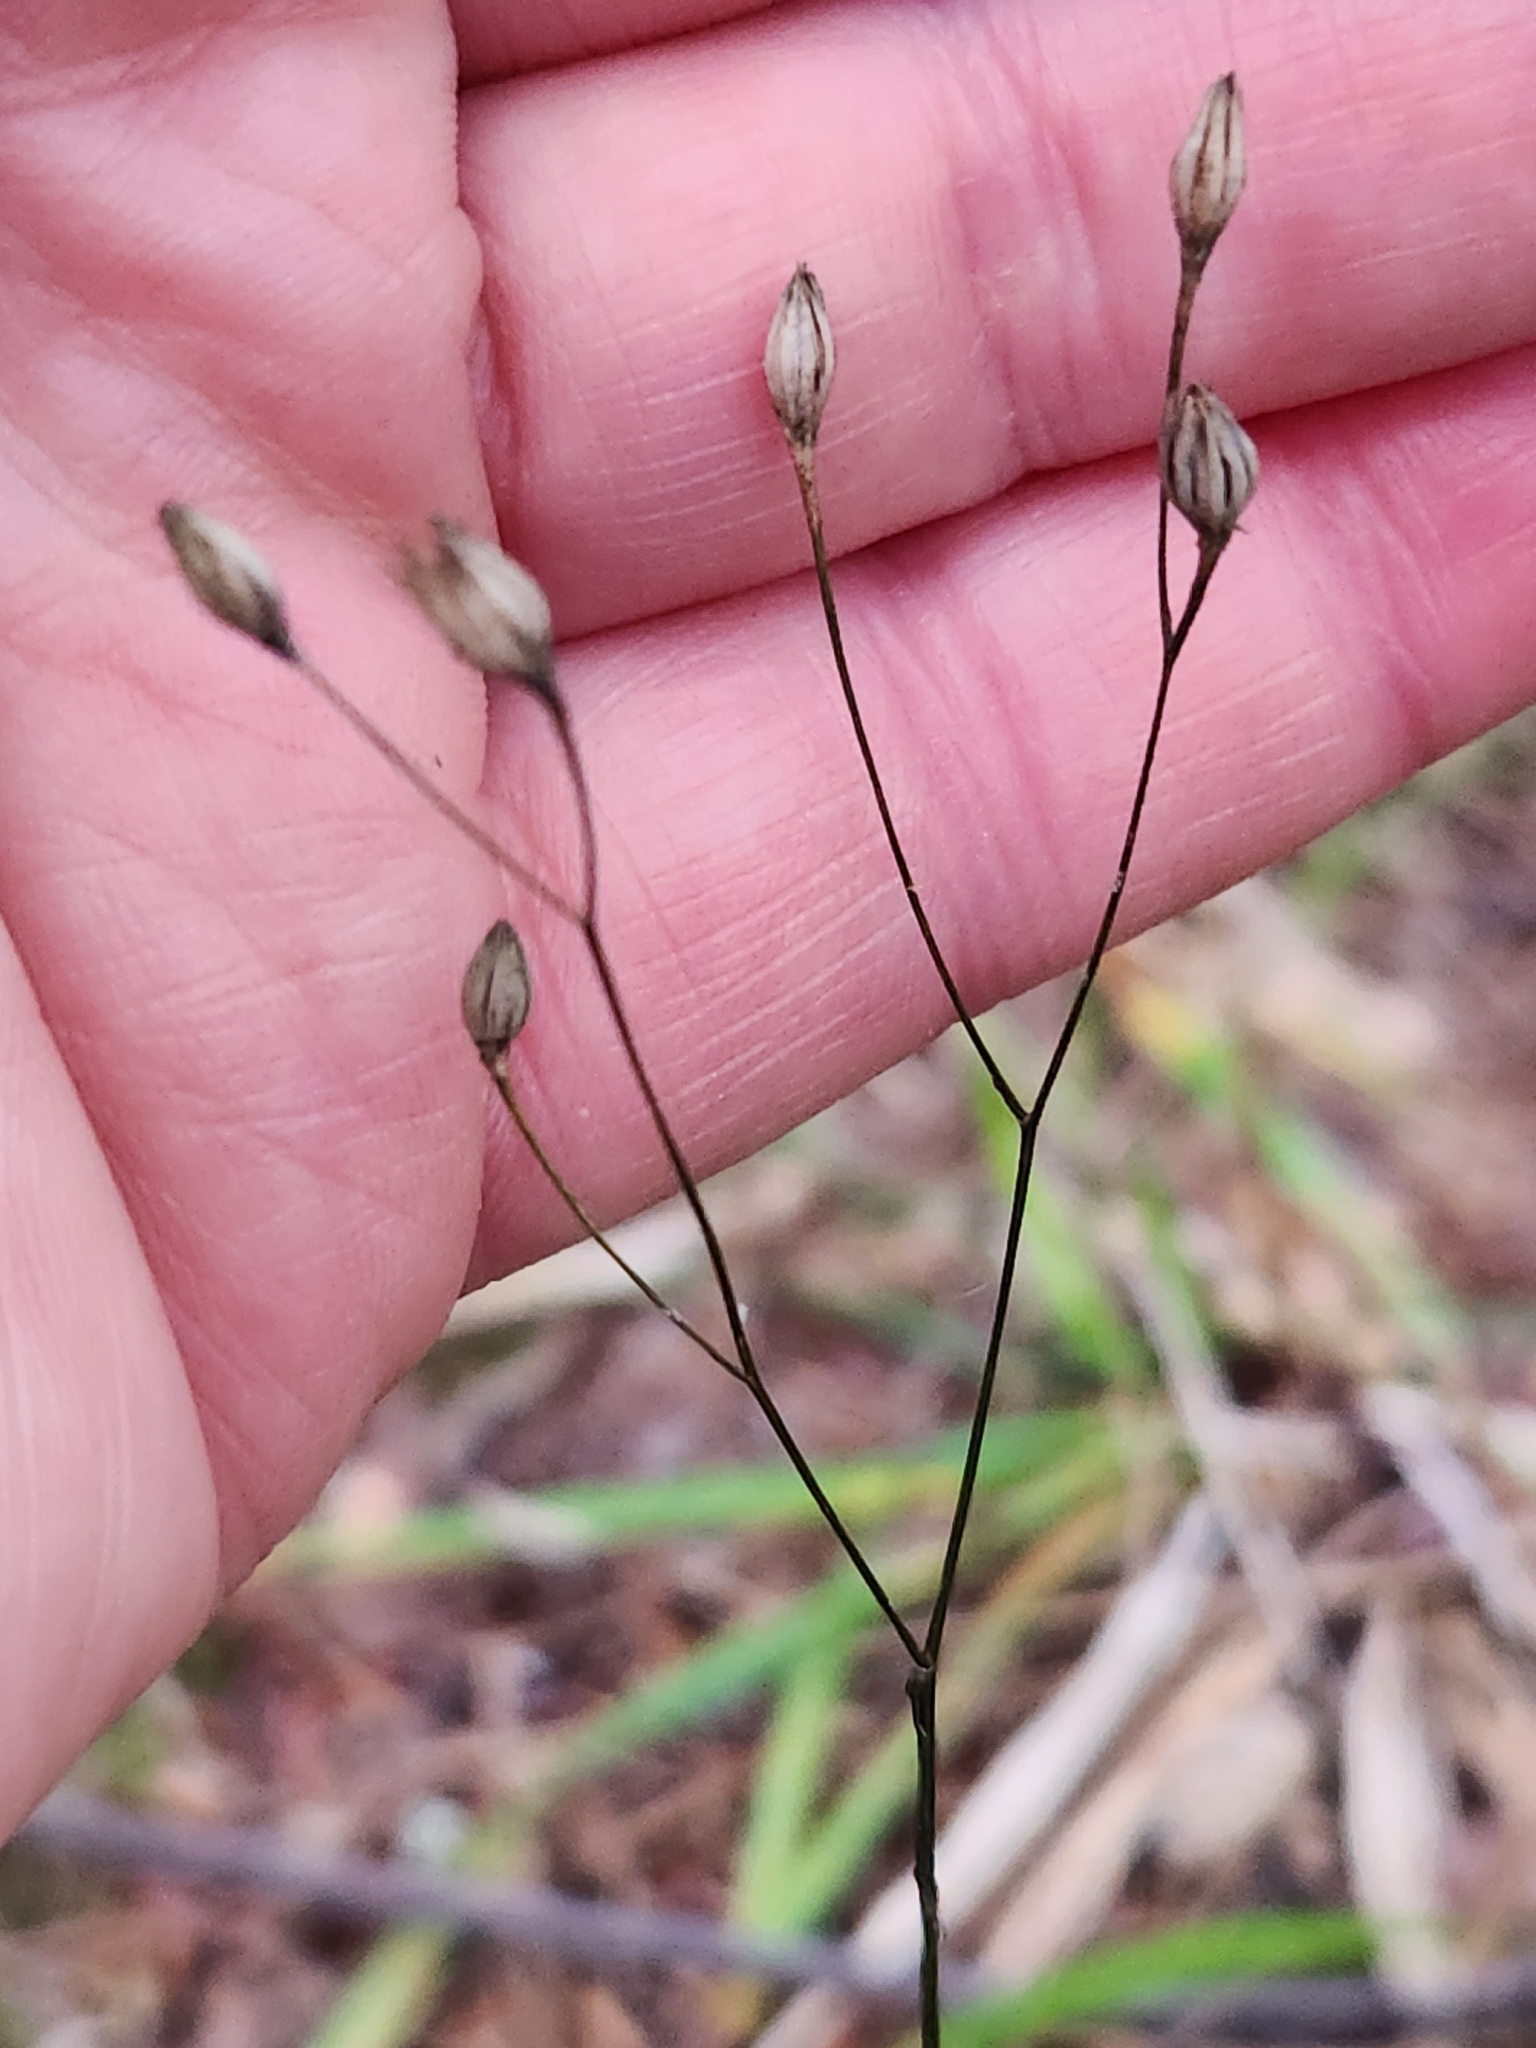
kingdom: Plantae
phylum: Tracheophyta
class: Magnoliopsida
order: Asterales
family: Asteraceae
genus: Lapsana
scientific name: Lapsana communis
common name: Nipplewort
